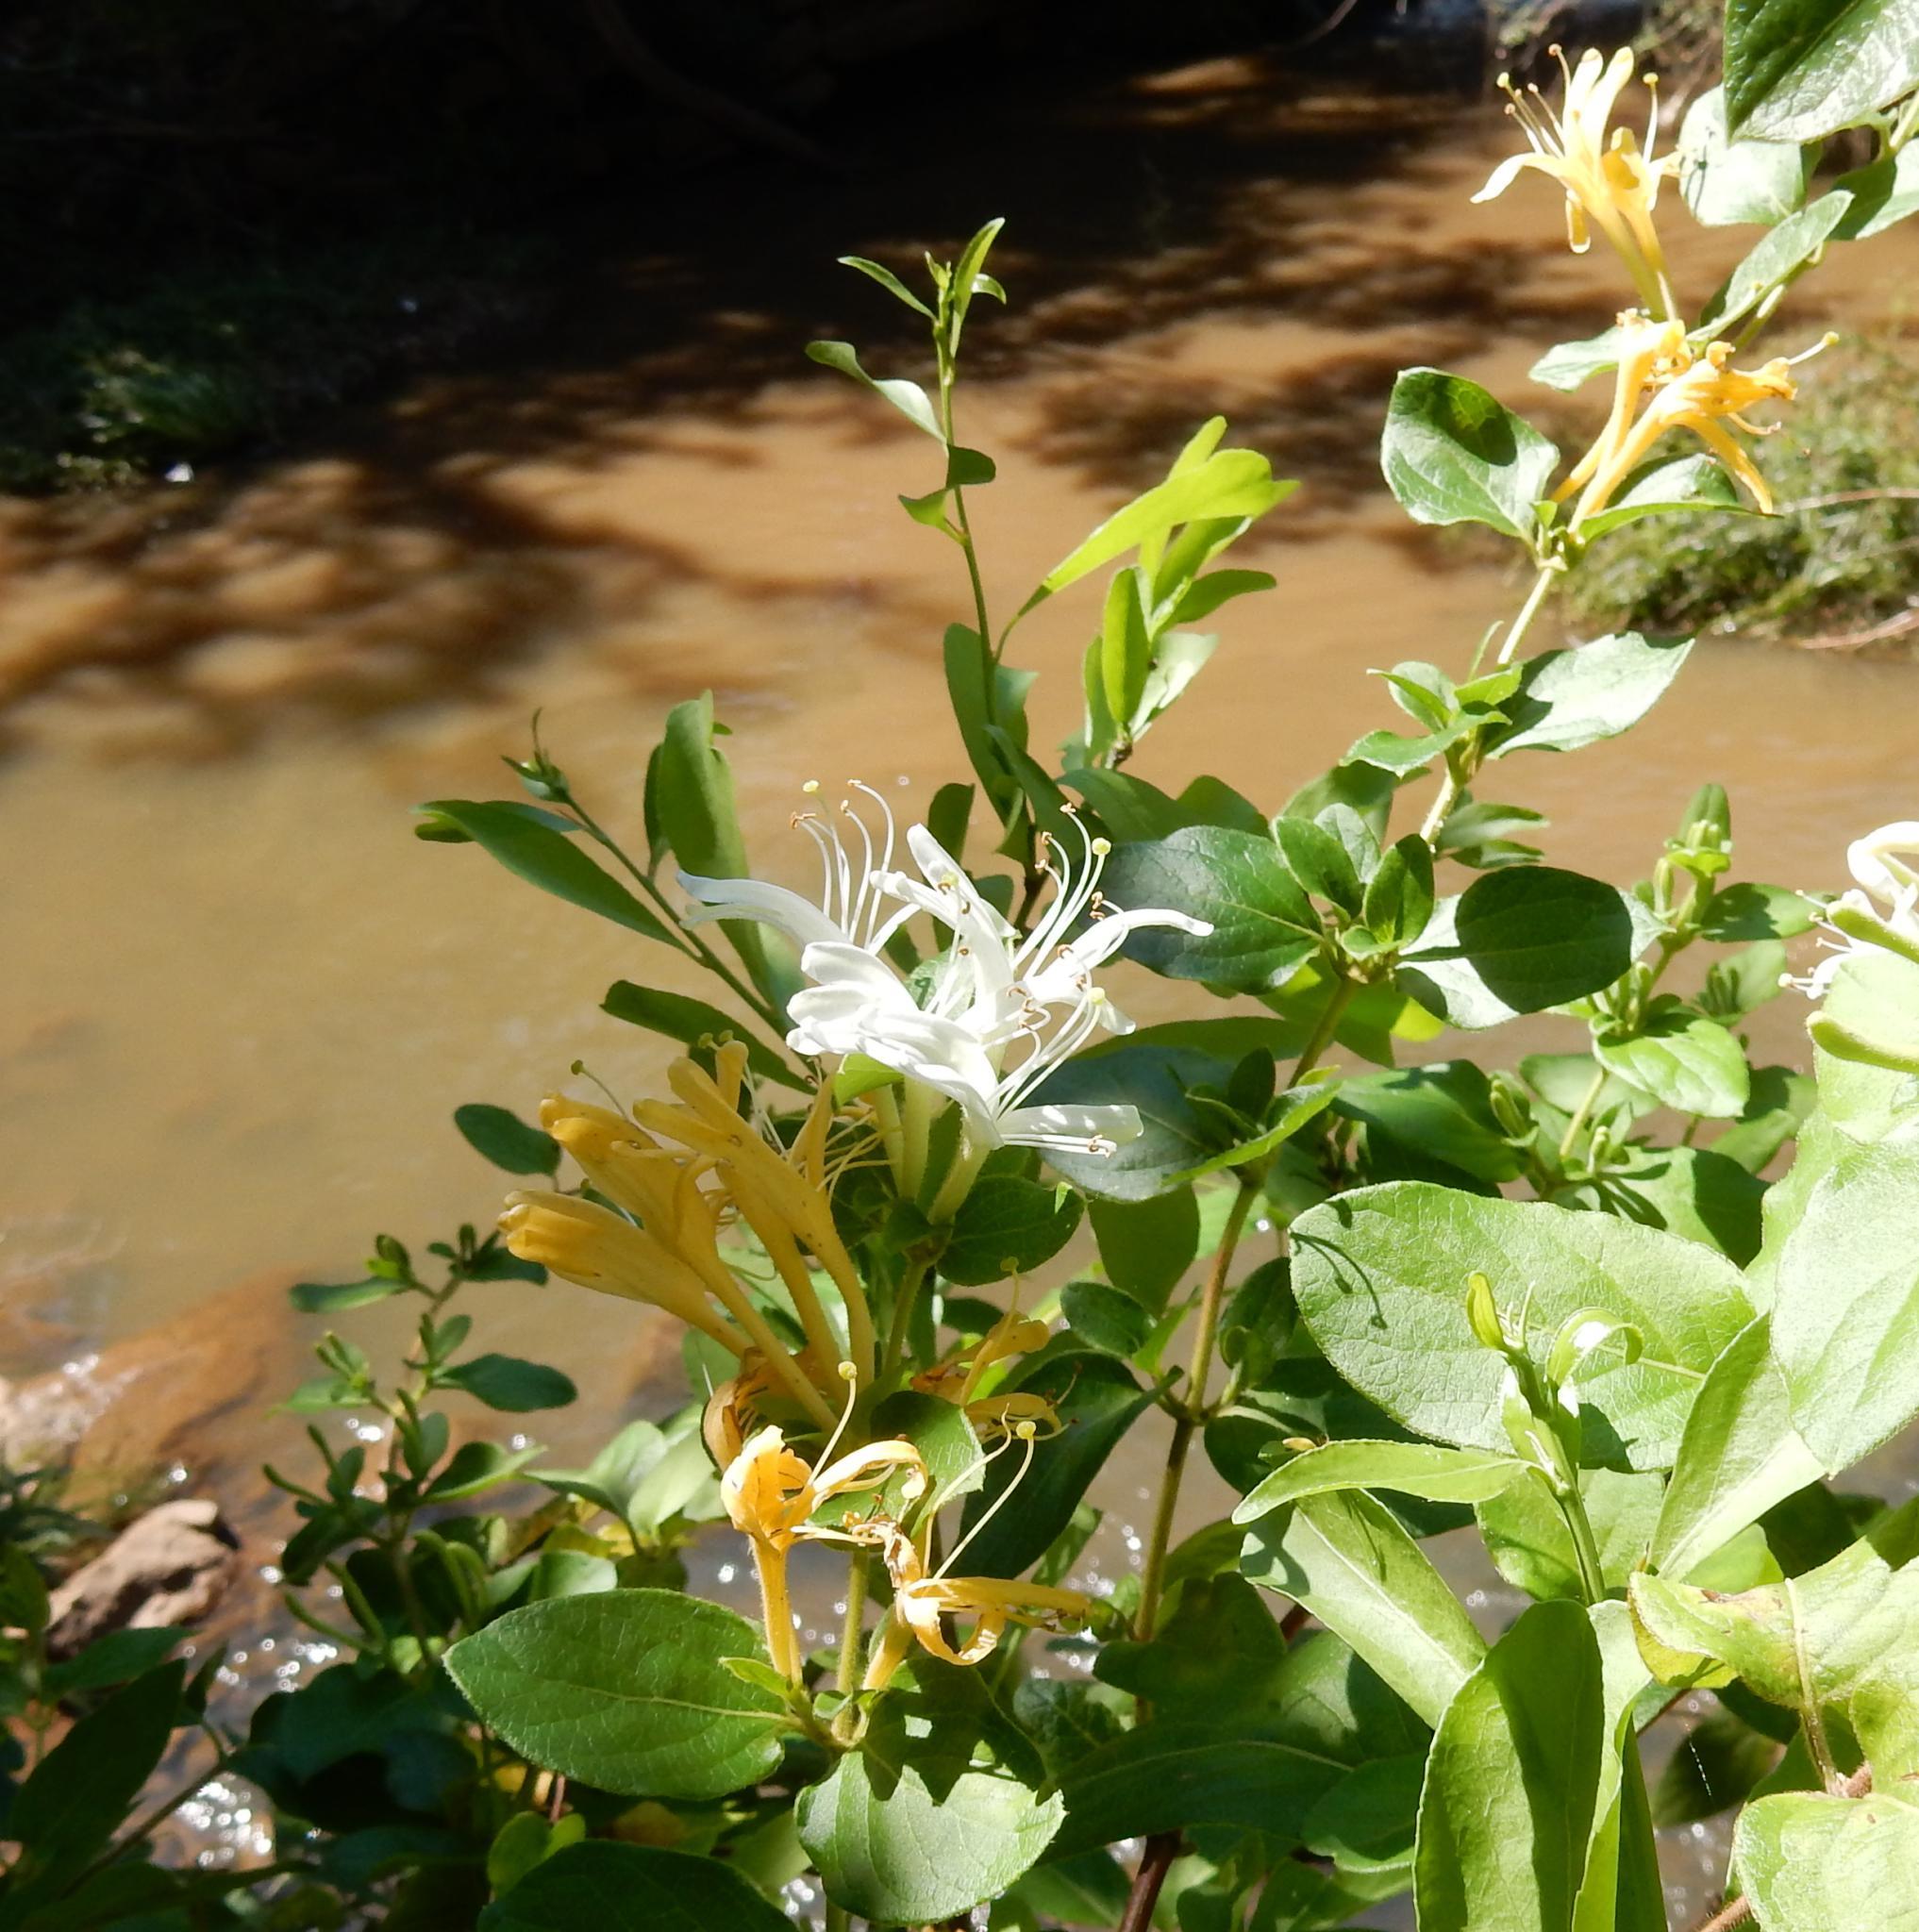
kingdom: Plantae
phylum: Tracheophyta
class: Magnoliopsida
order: Dipsacales
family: Caprifoliaceae
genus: Lonicera
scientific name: Lonicera japonica
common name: Japanese honeysuckle
